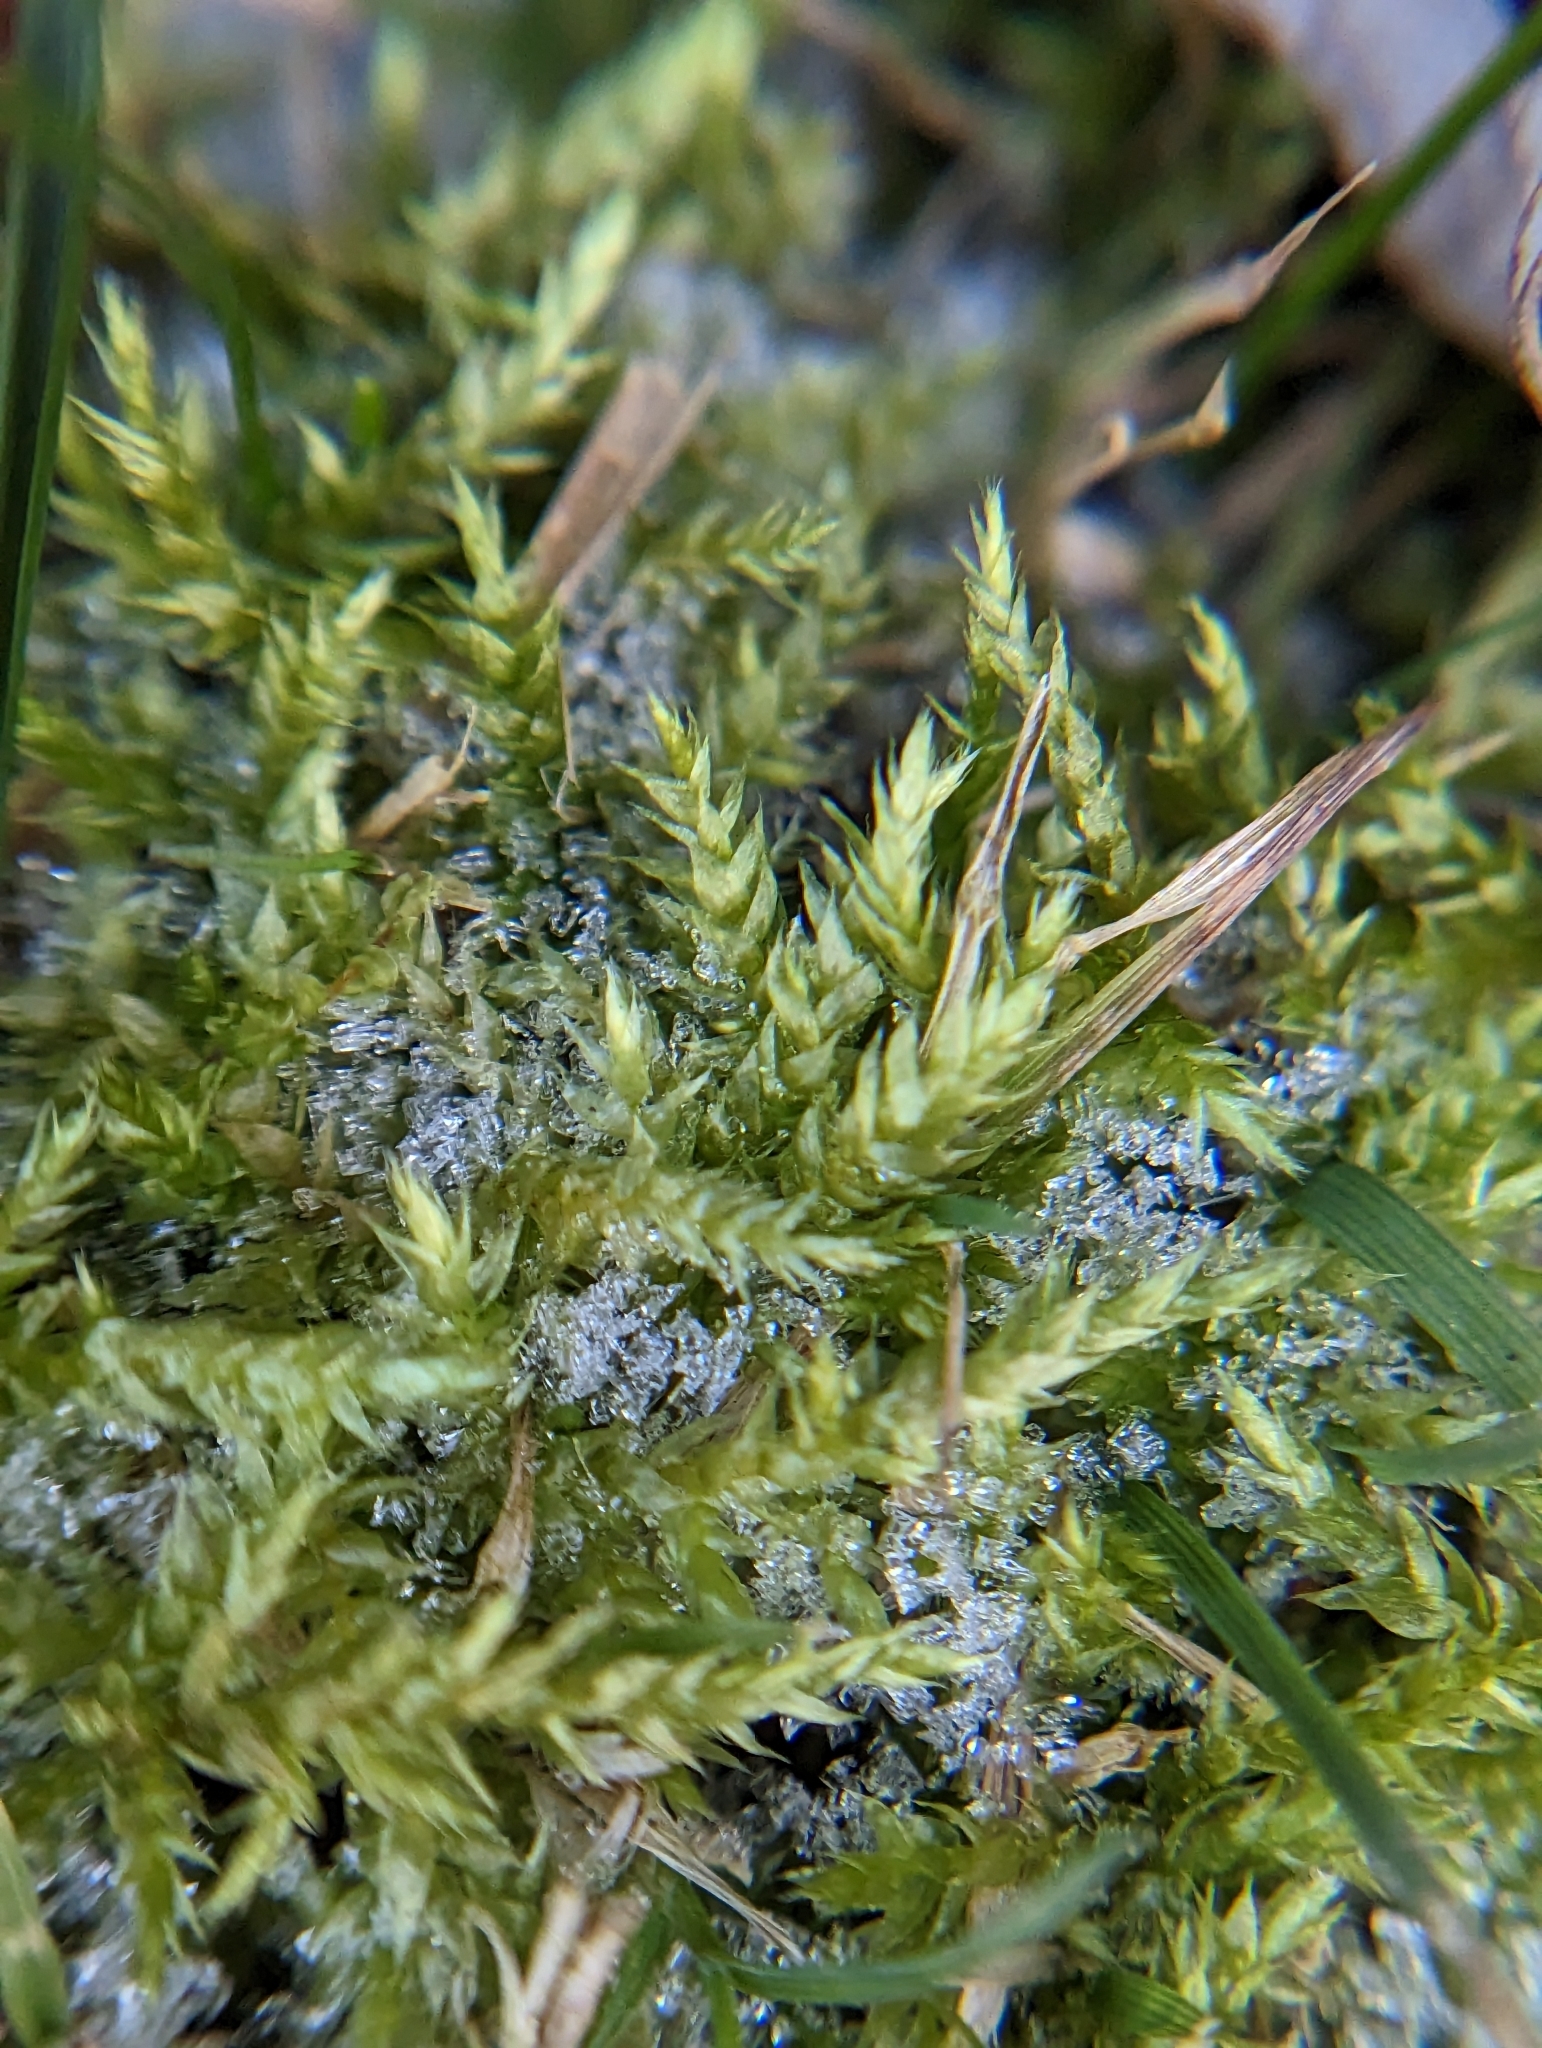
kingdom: Plantae
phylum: Bryophyta
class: Bryopsida
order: Hypnales
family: Callicladiaceae
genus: Callicladium
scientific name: Callicladium haldanianum
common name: Beautiful branch moss
